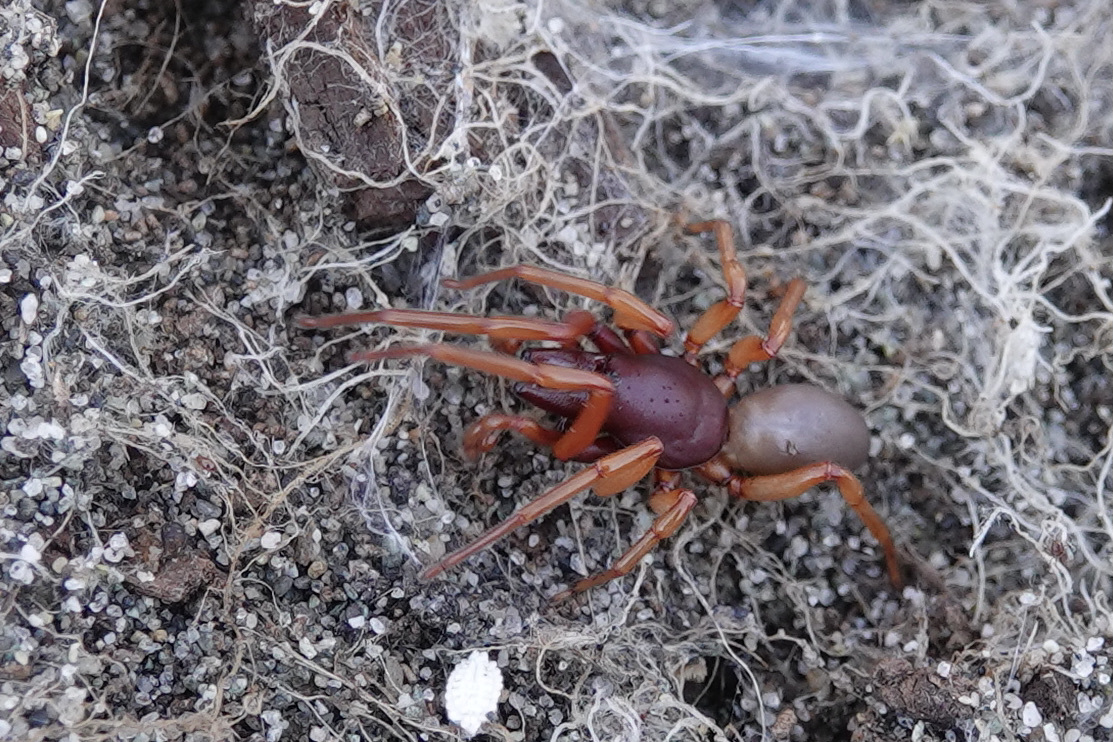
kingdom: Animalia
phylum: Arthropoda
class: Arachnida
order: Araneae
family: Dysderidae
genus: Dysdera
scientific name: Dysdera crocata
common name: Woodlouse spider
